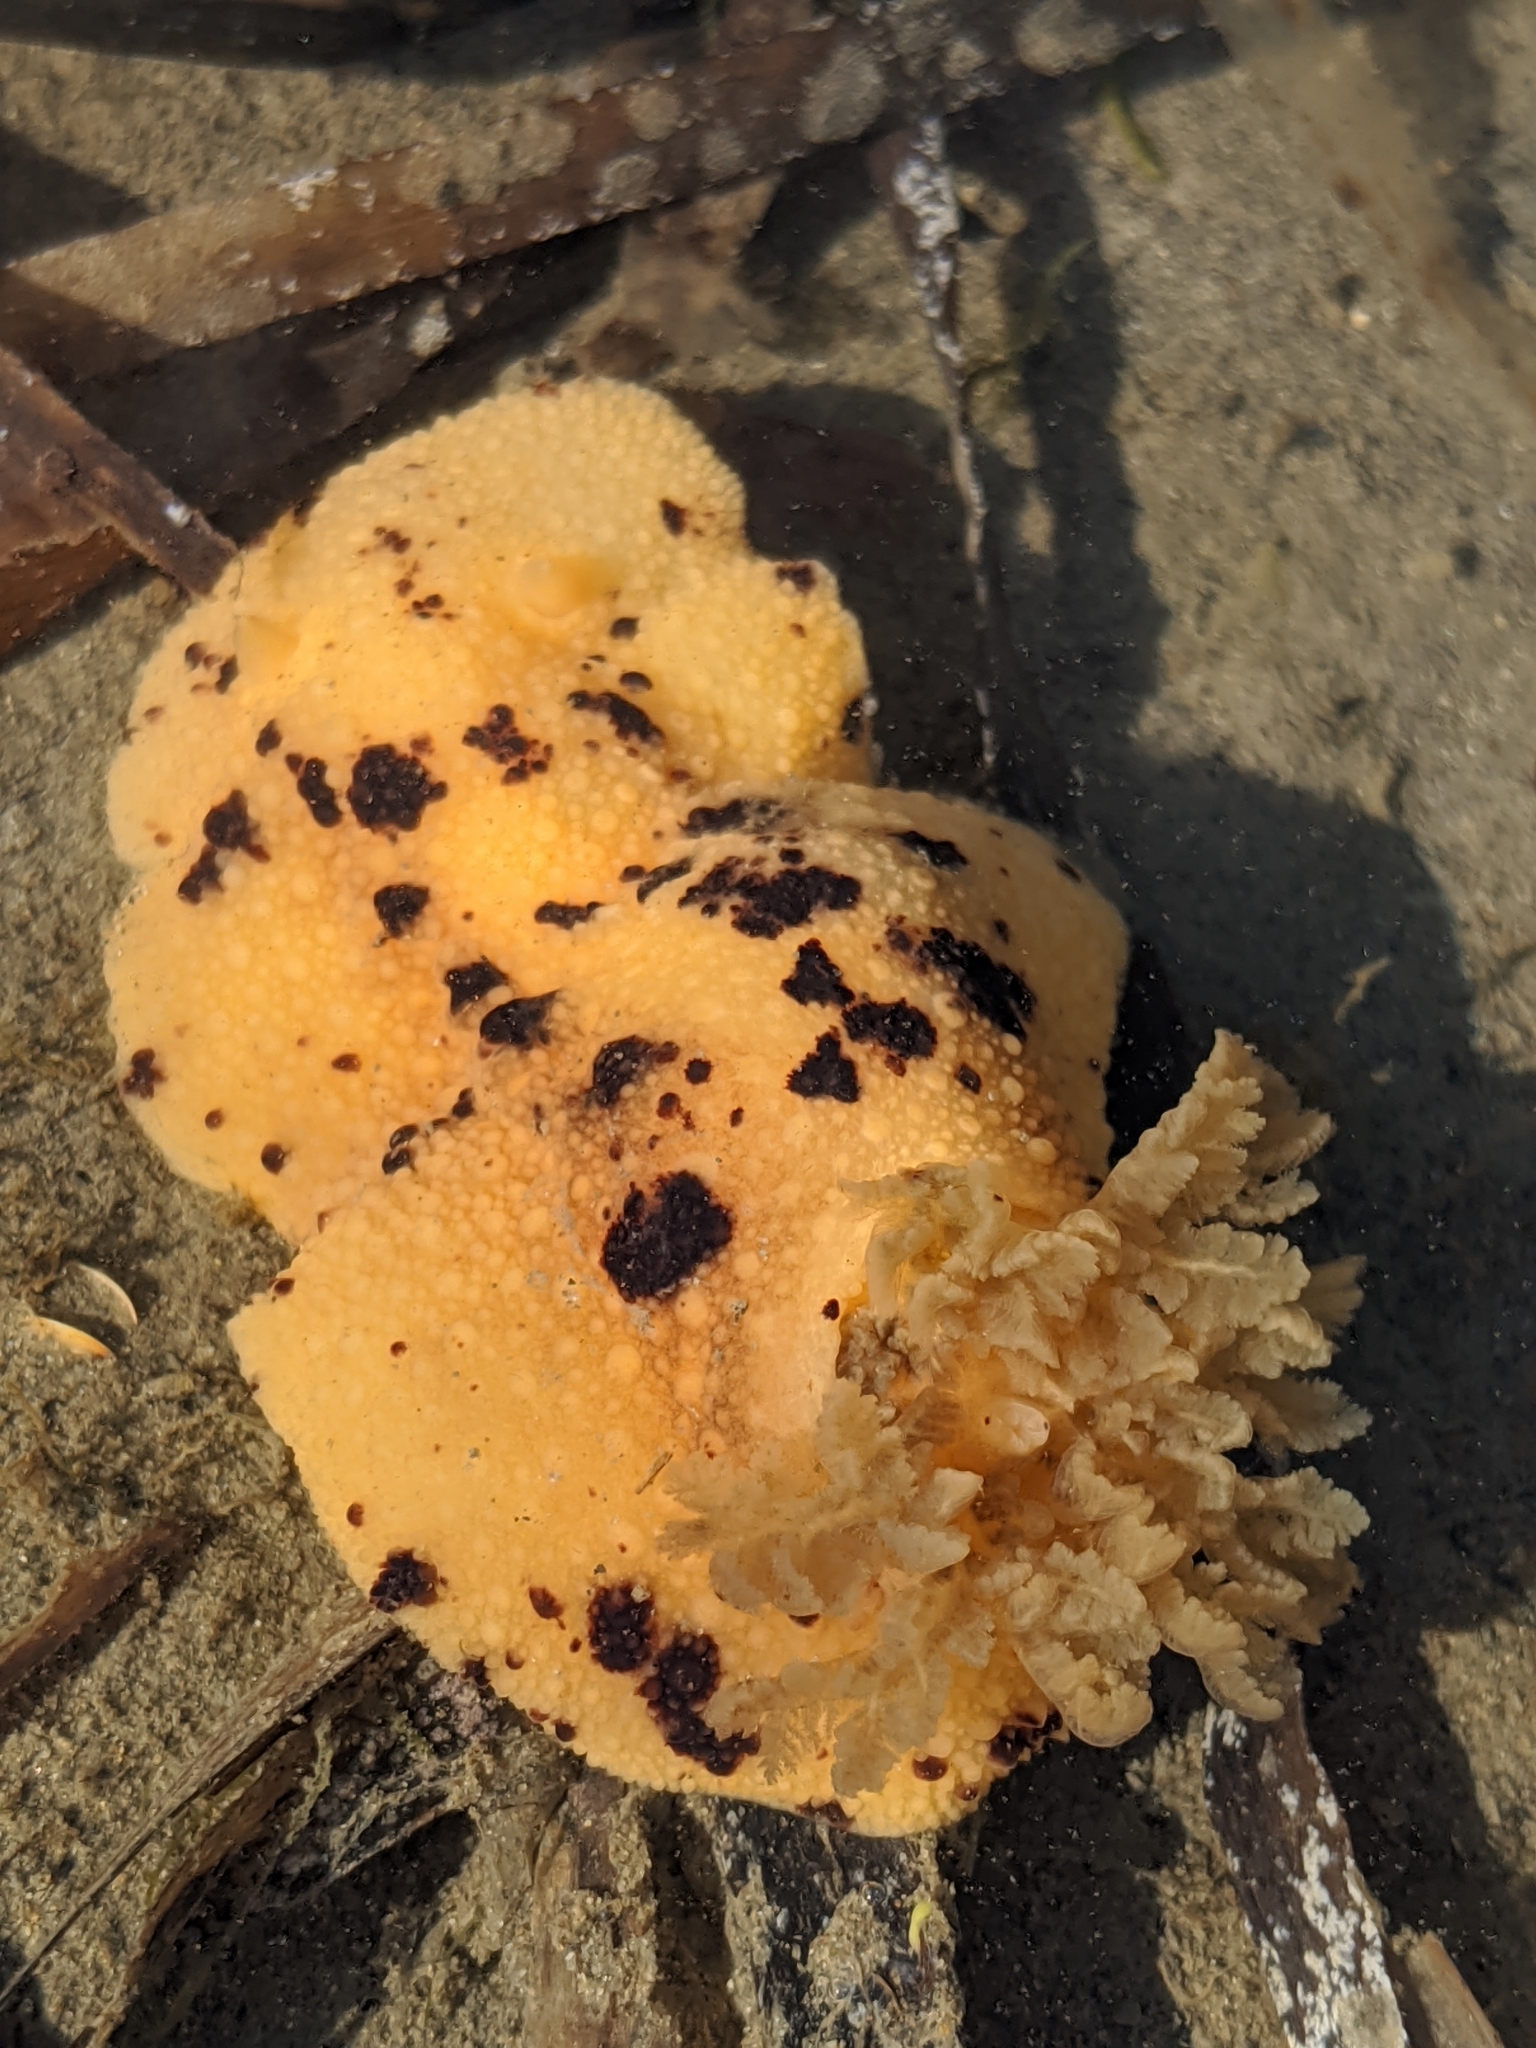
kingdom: Animalia
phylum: Mollusca
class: Gastropoda
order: Nudibranchia
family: Dorididae
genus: Doris
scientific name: Doris montereyensis
